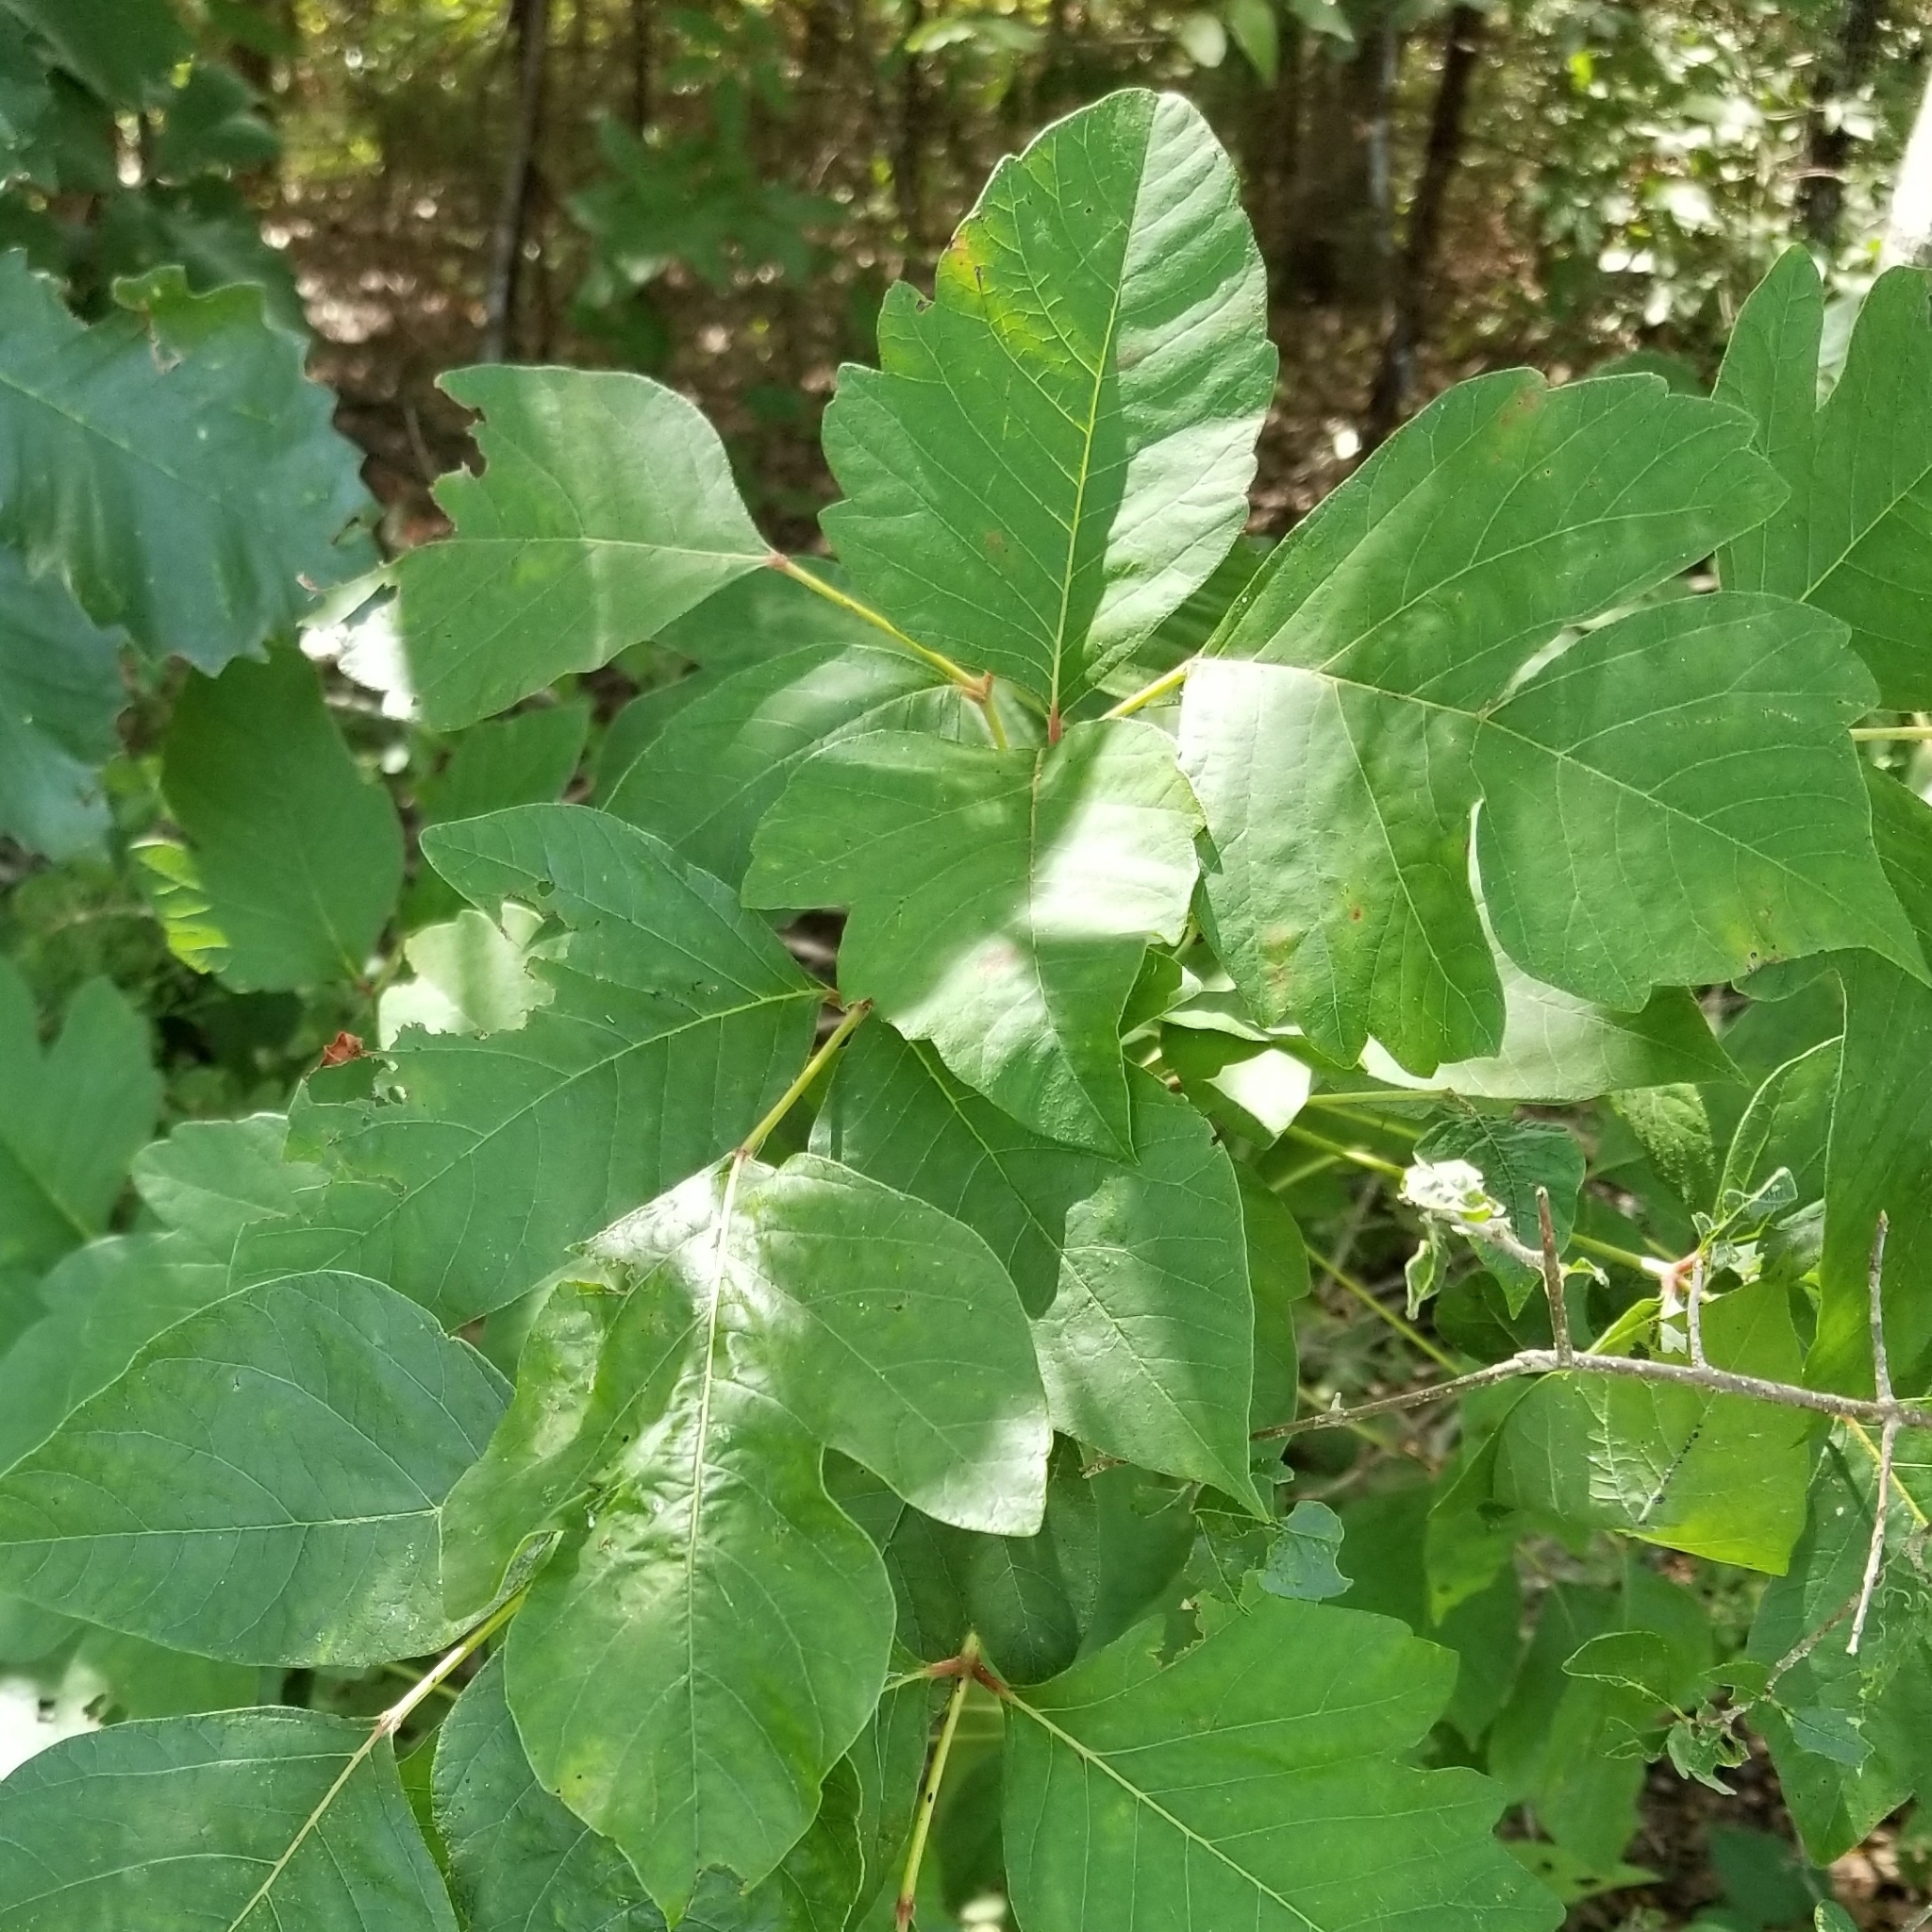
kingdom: Plantae
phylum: Tracheophyta
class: Magnoliopsida
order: Sapindales
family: Anacardiaceae
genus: Toxicodendron
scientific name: Toxicodendron radicans
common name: Poison ivy
